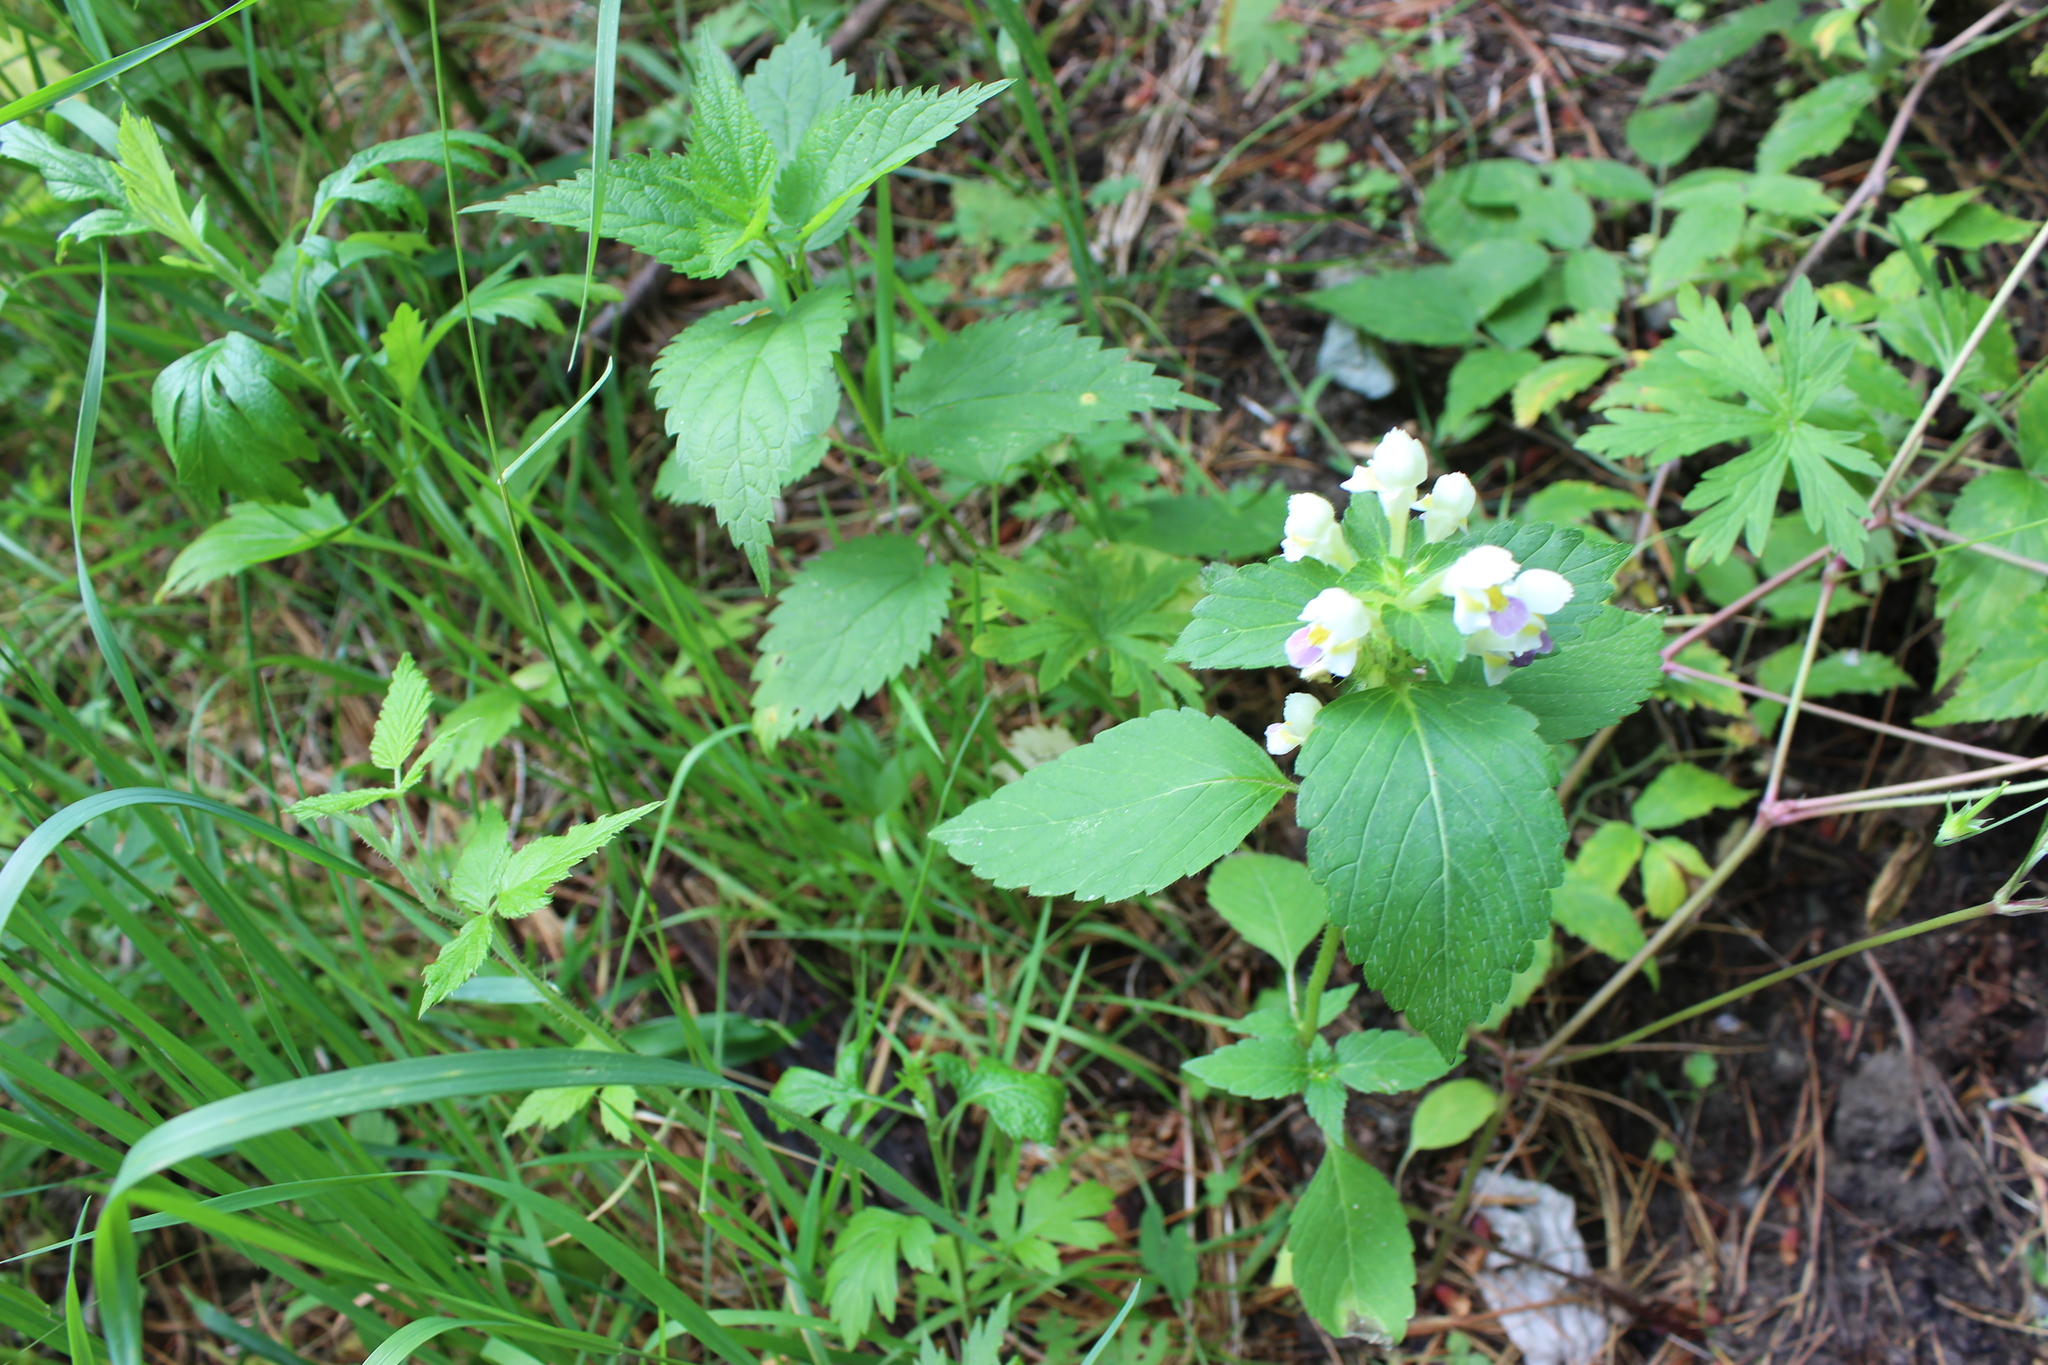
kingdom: Plantae
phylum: Tracheophyta
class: Magnoliopsida
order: Lamiales
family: Lamiaceae
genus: Galeopsis
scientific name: Galeopsis speciosa
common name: Large-flowered hemp-nettle
